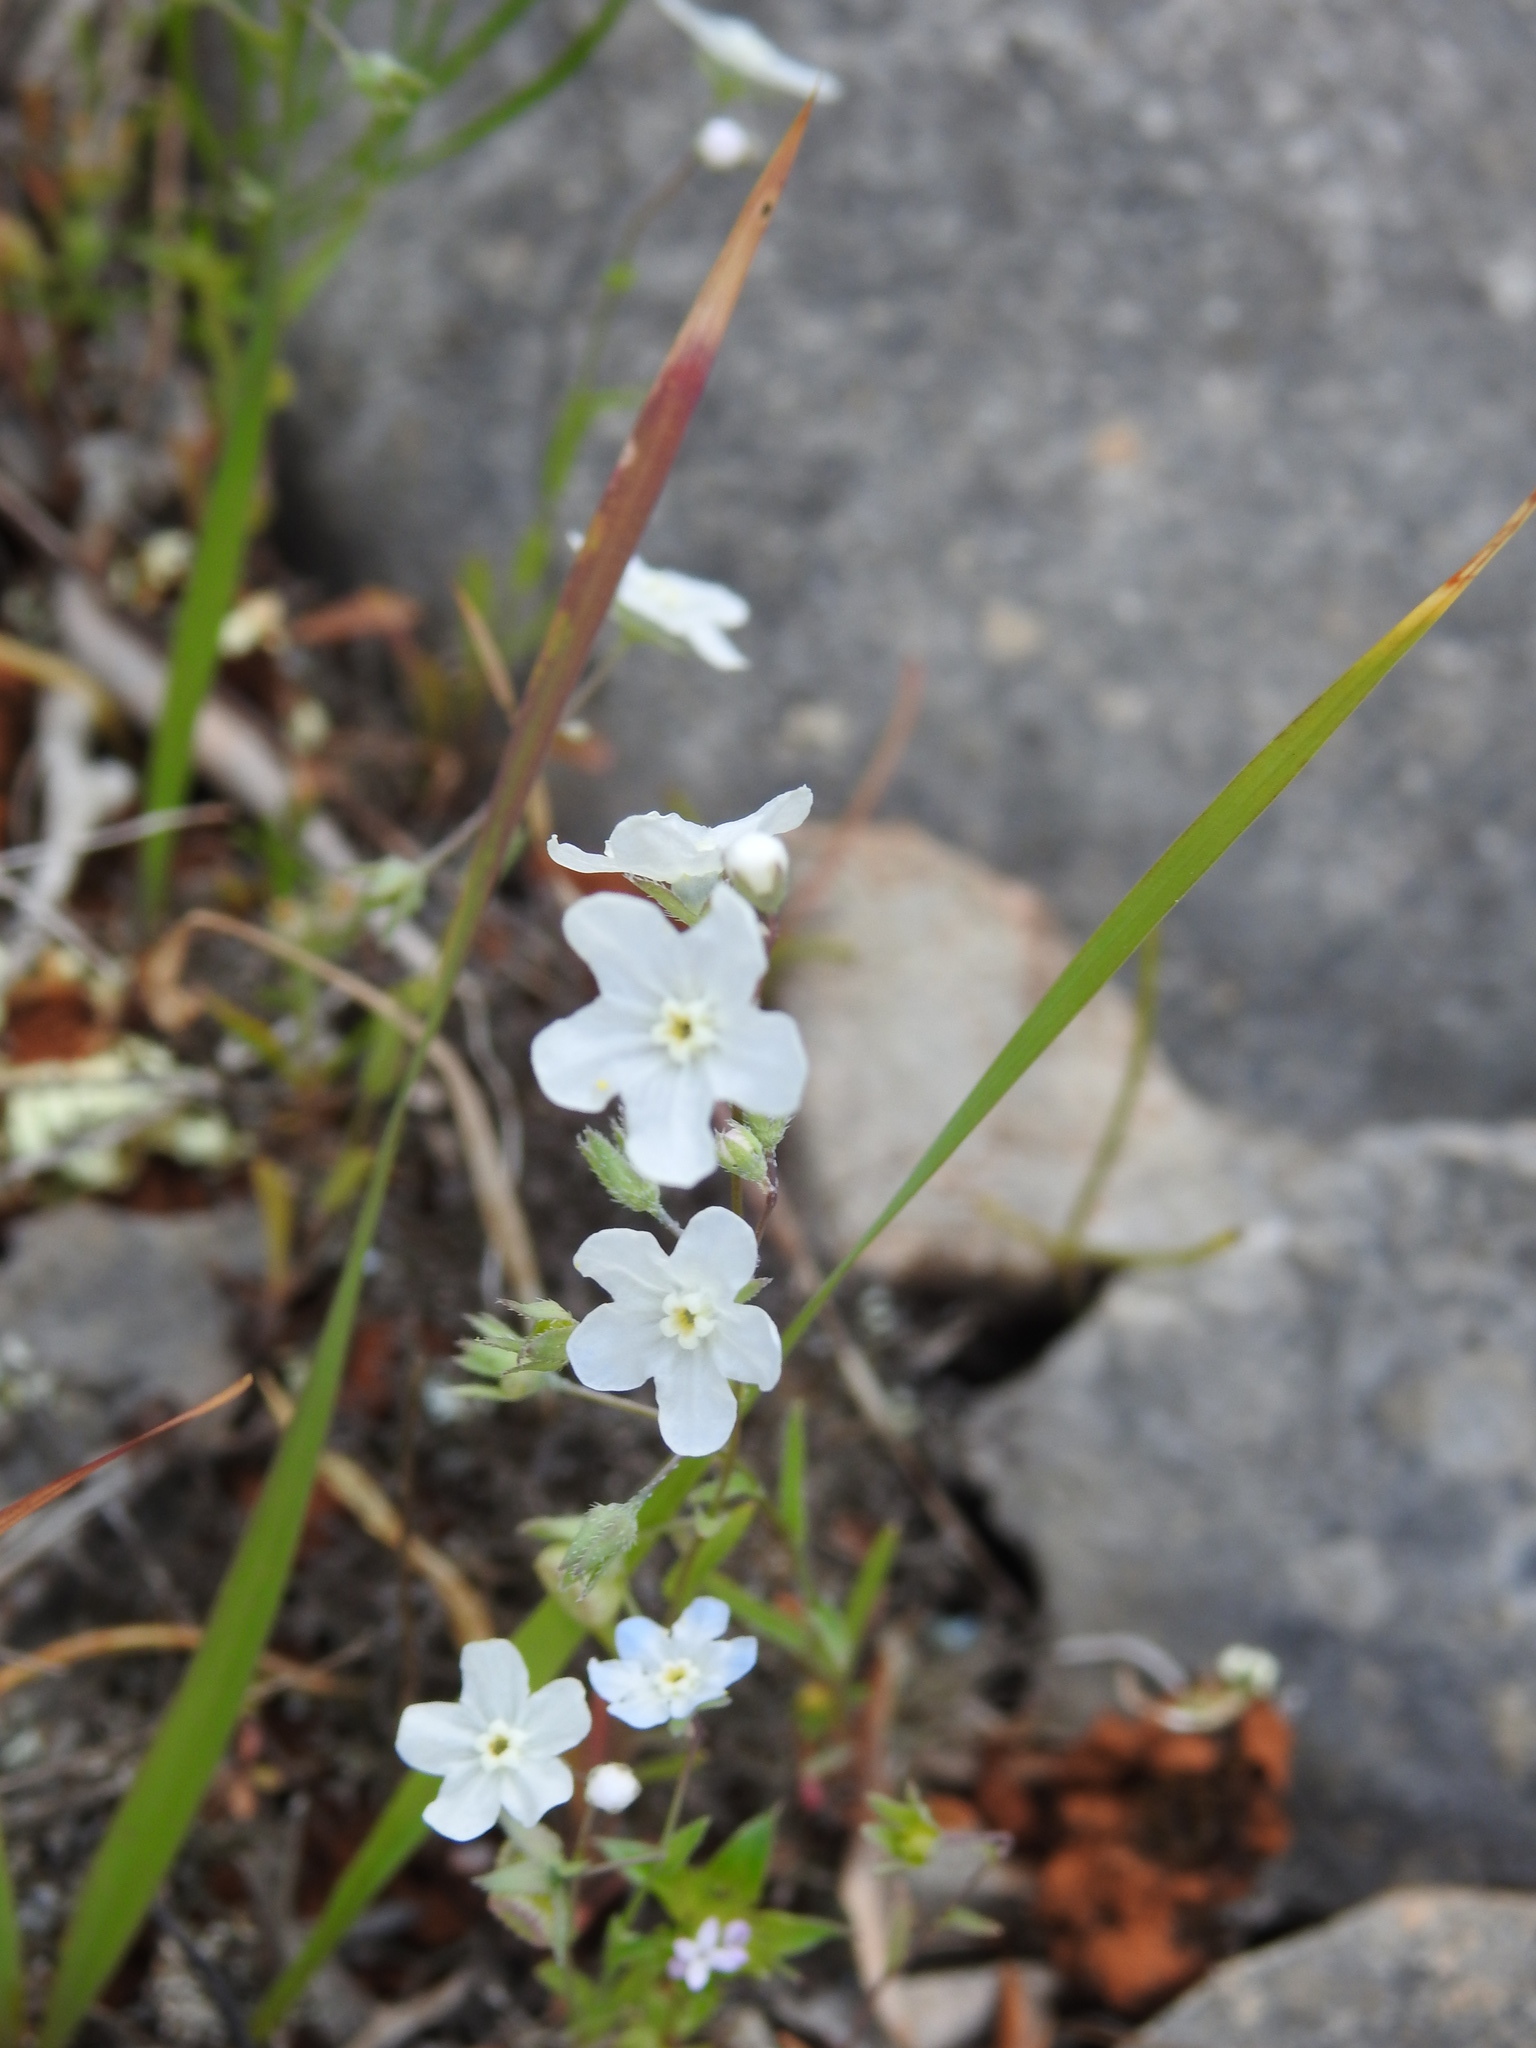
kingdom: Plantae
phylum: Tracheophyta
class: Magnoliopsida
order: Boraginales
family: Boraginaceae
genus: Iberodes
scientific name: Iberodes linifolia
